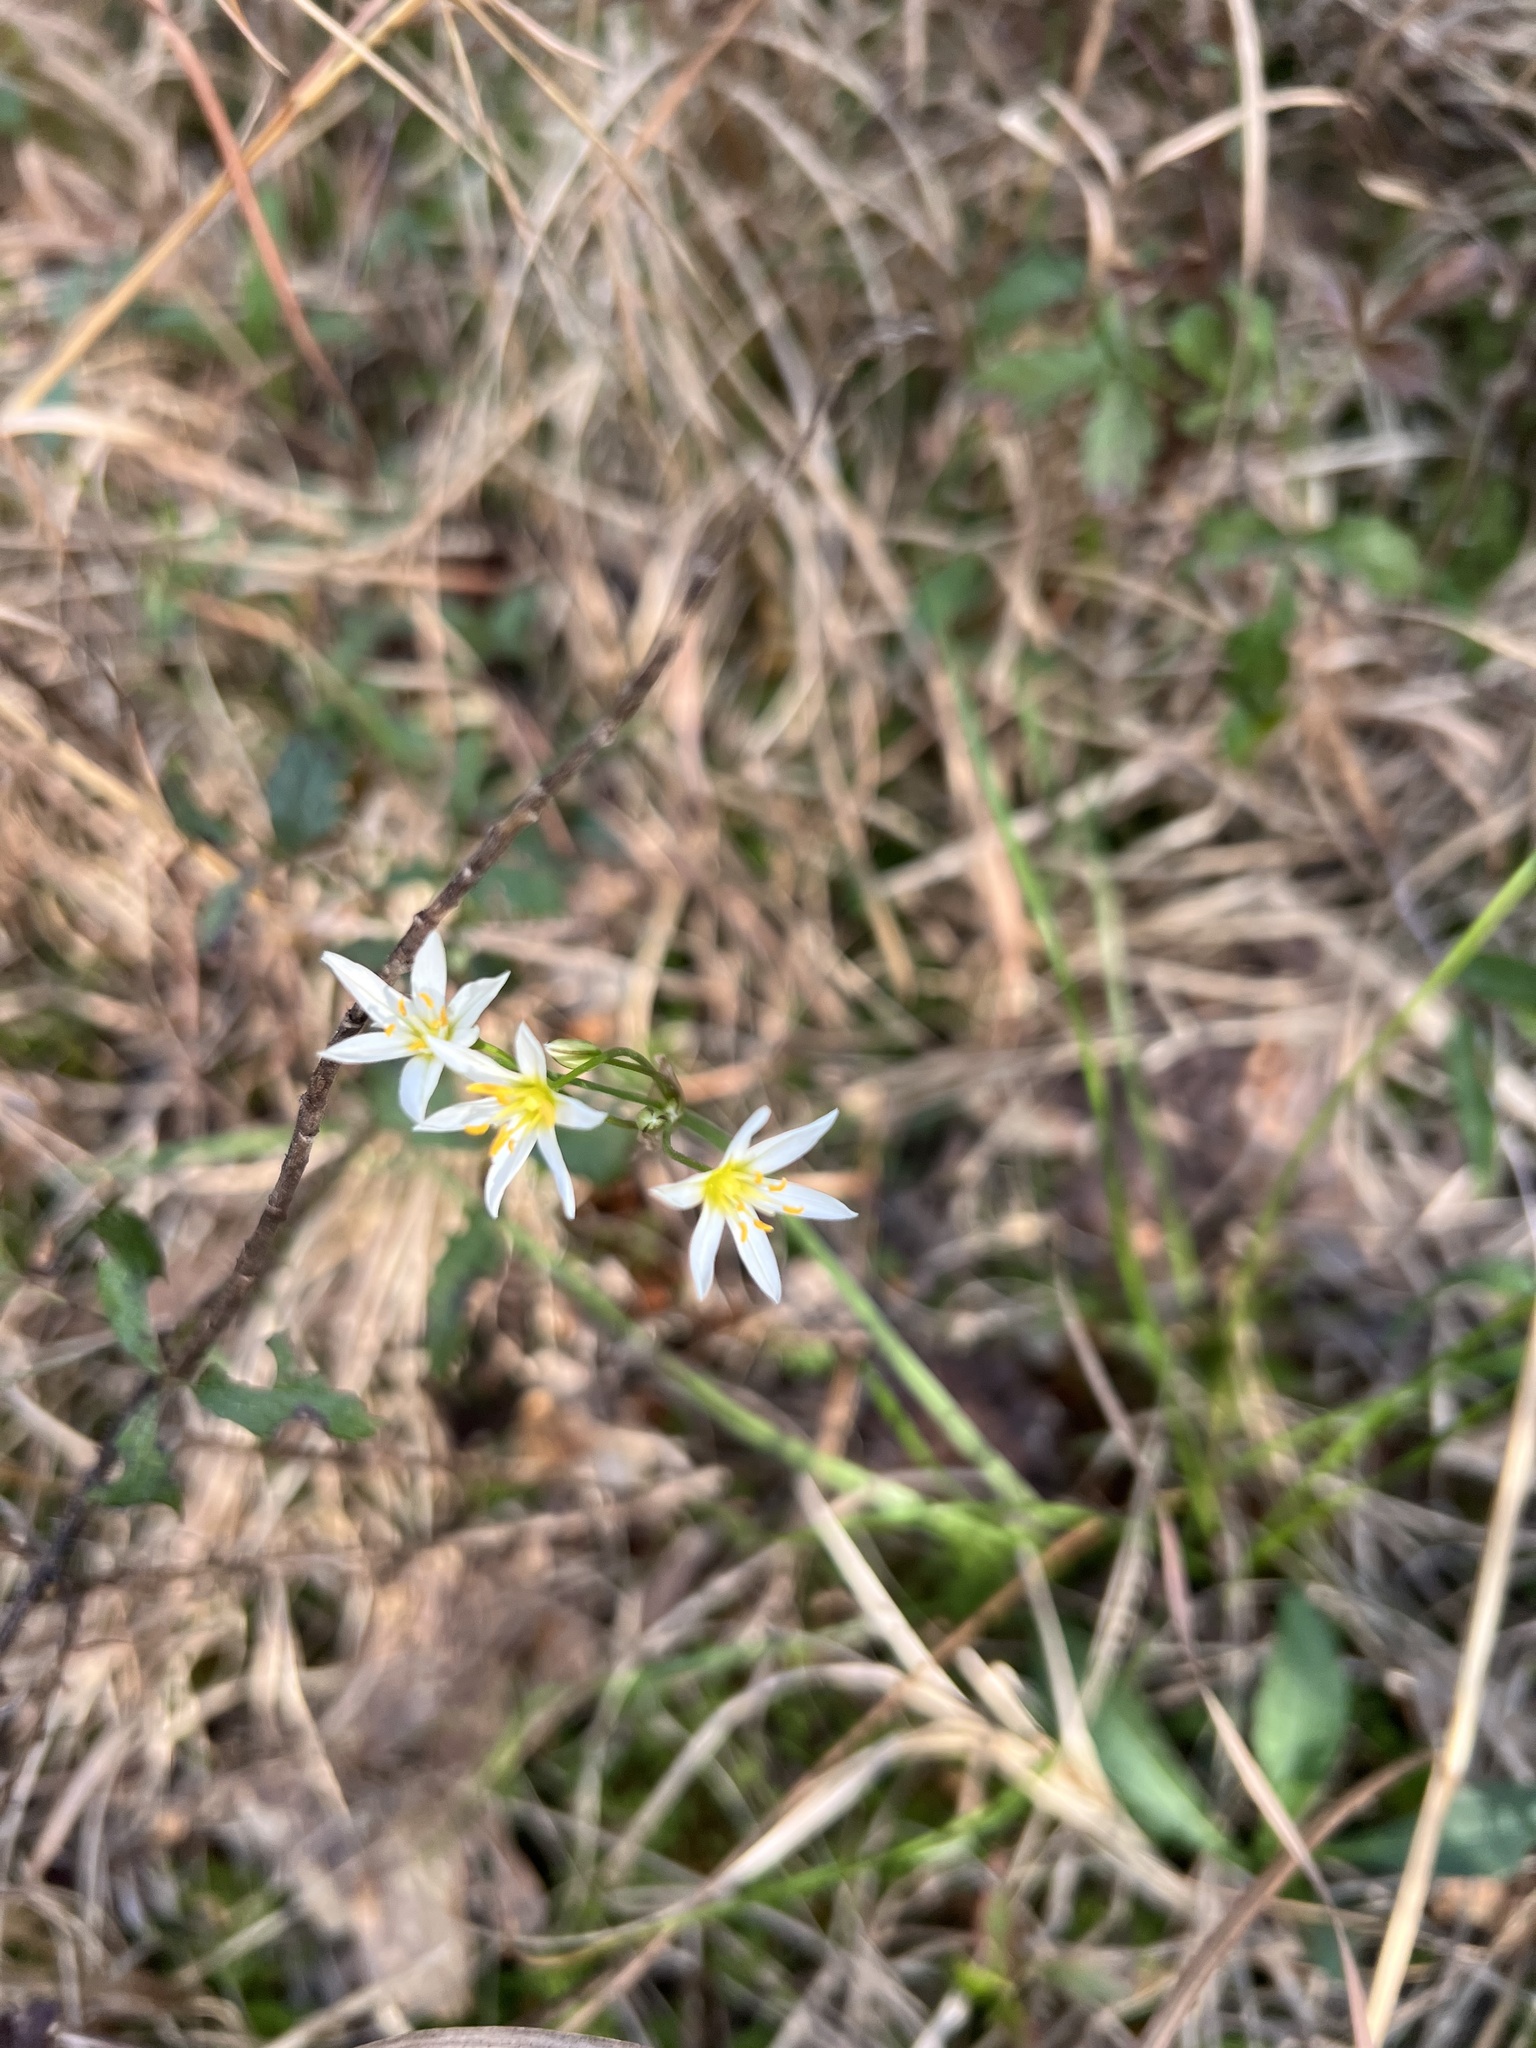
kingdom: Plantae
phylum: Tracheophyta
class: Liliopsida
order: Asparagales
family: Amaryllidaceae
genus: Nothoscordum
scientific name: Nothoscordum bivalve
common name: Crow-poison
